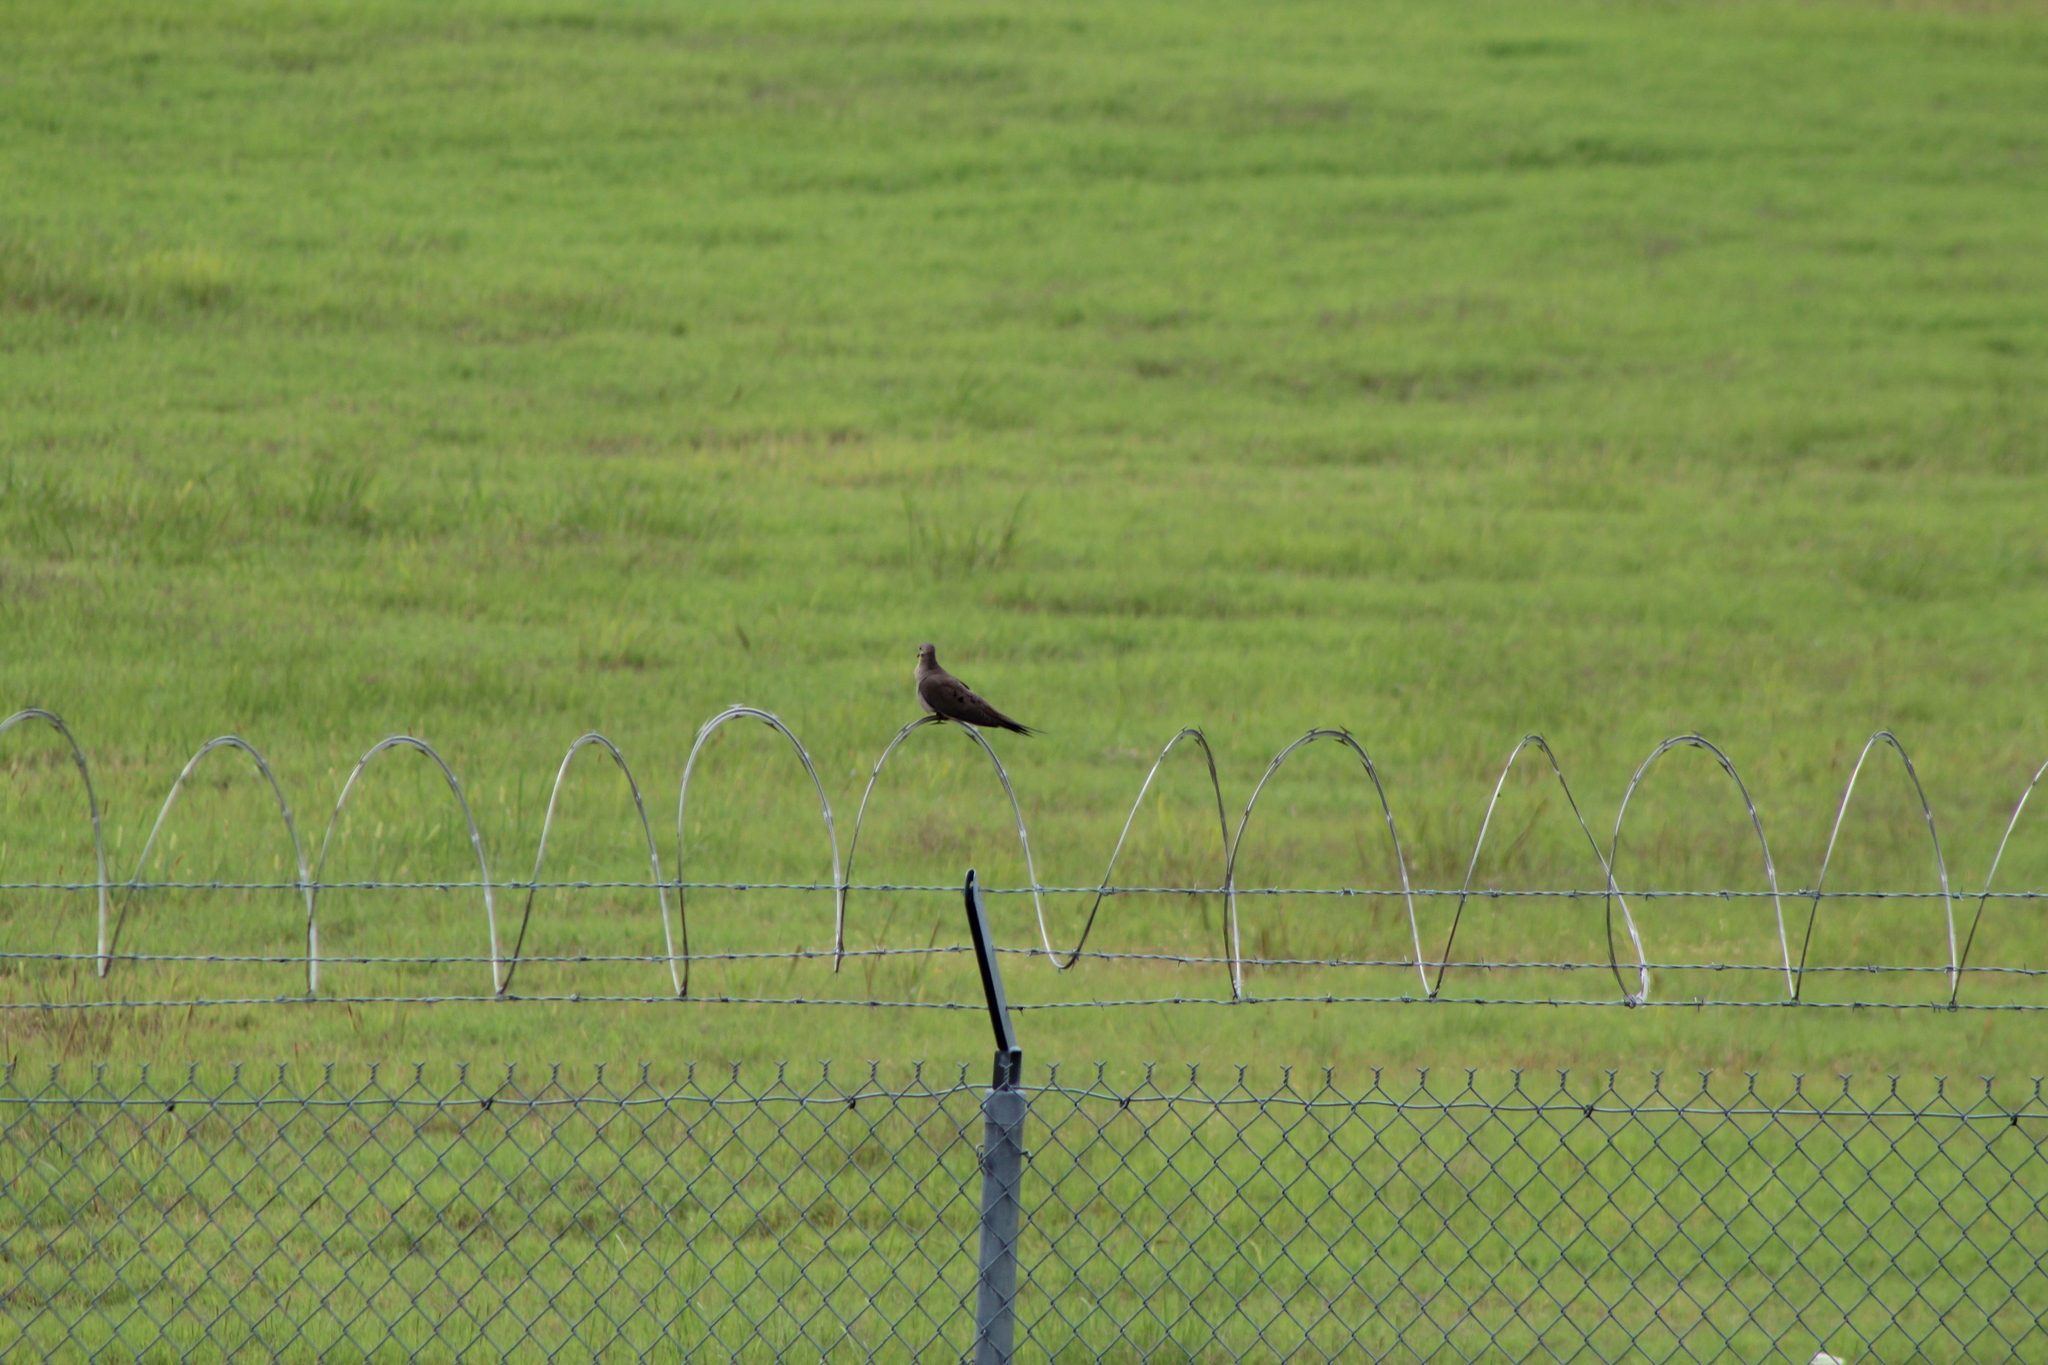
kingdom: Animalia
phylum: Chordata
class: Aves
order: Columbiformes
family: Columbidae
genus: Zenaida
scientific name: Zenaida macroura
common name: Mourning dove
